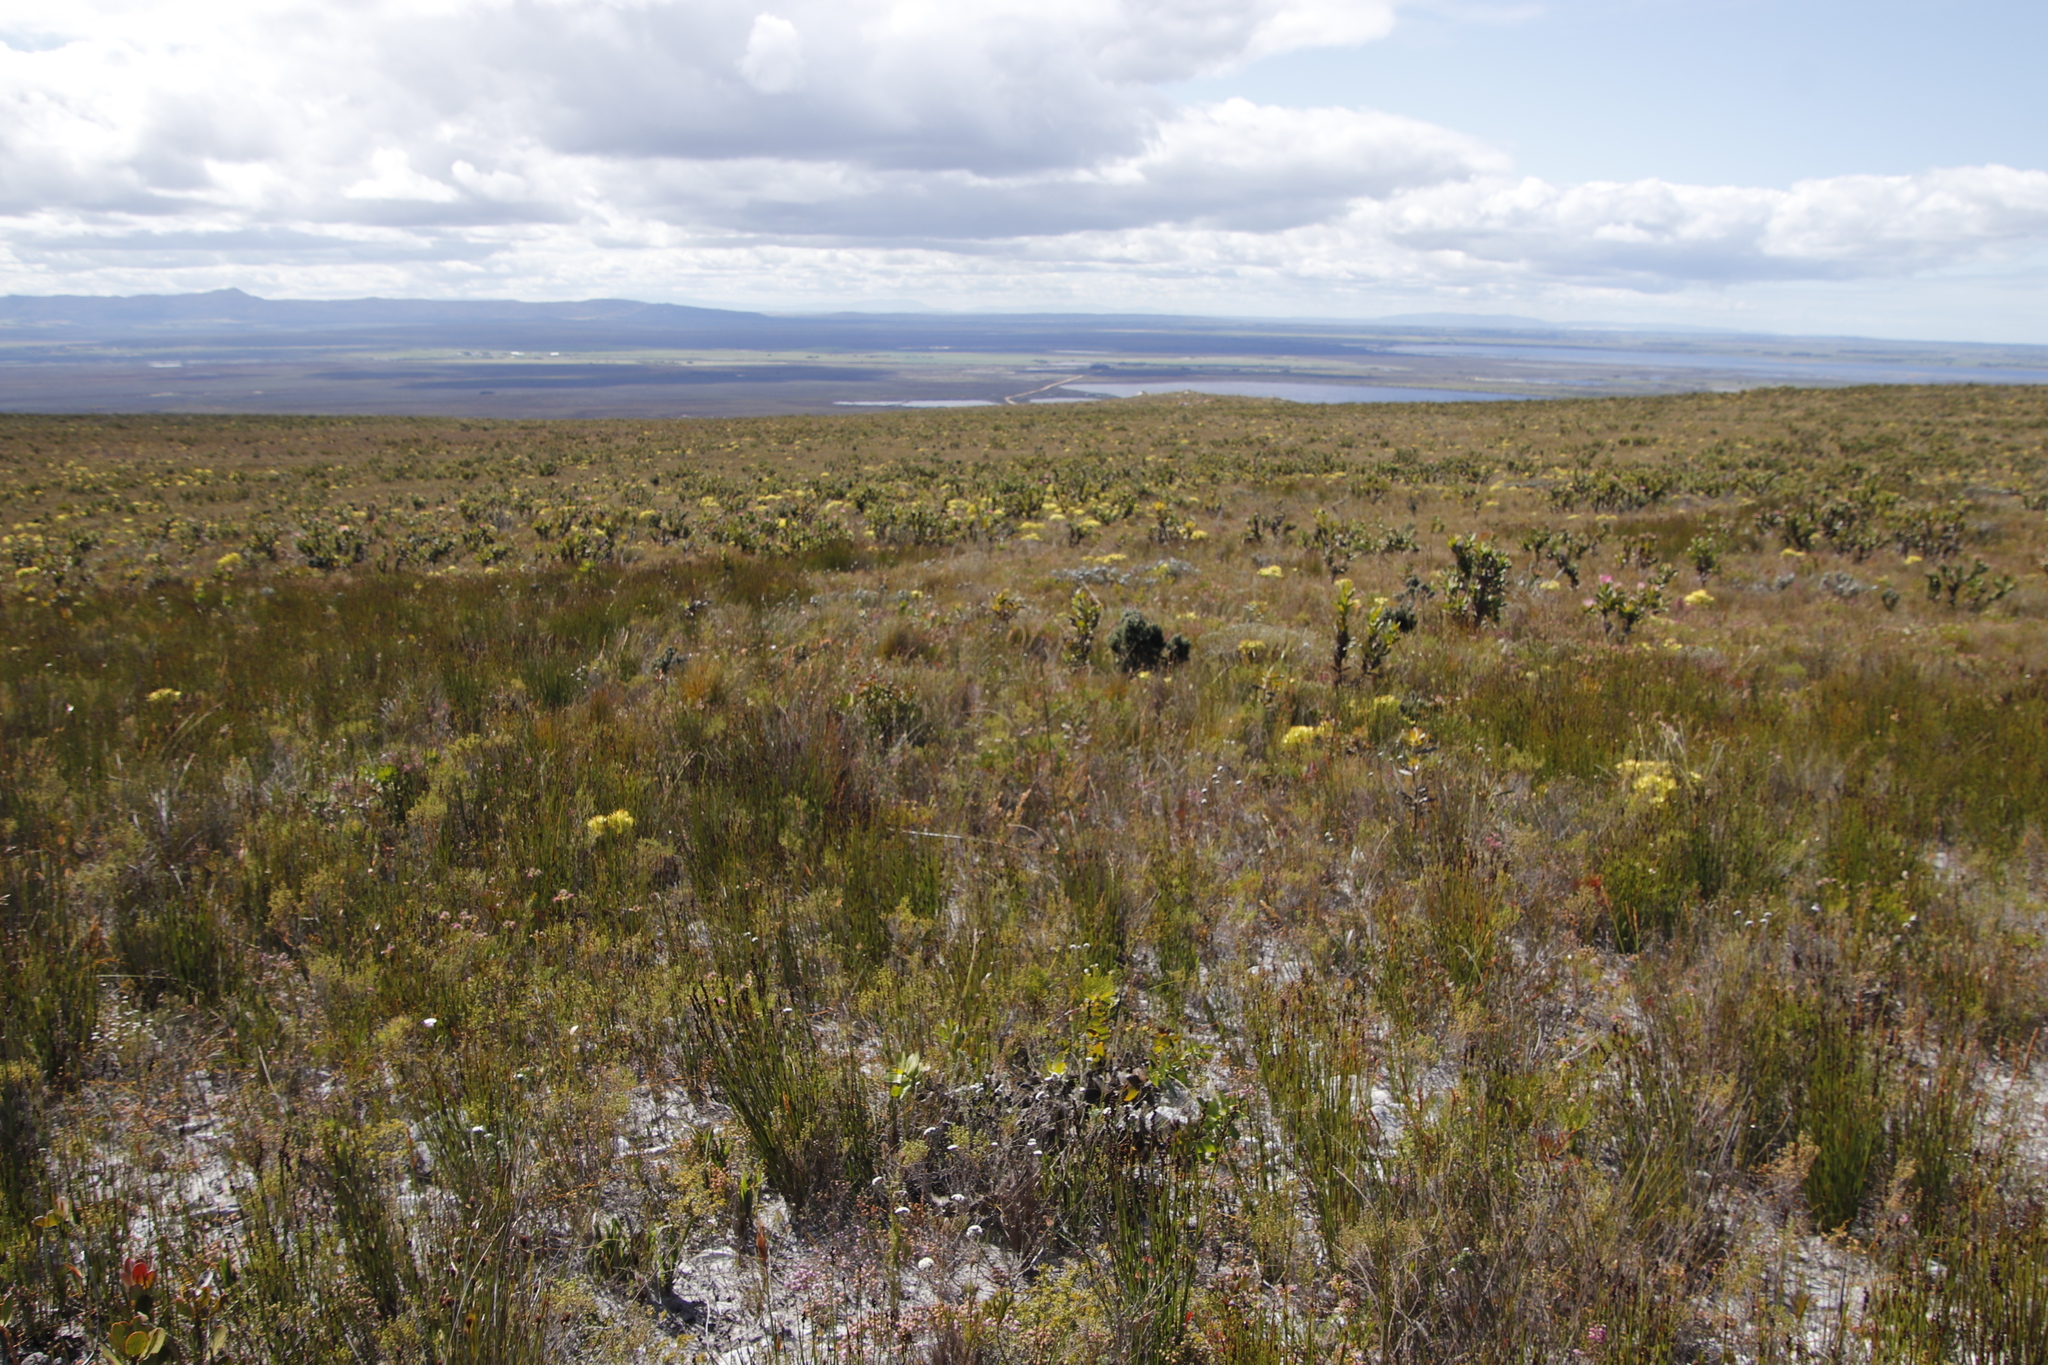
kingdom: Plantae
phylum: Tracheophyta
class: Magnoliopsida
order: Asterales
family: Asteraceae
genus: Phaenocoma
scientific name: Phaenocoma prolifera
